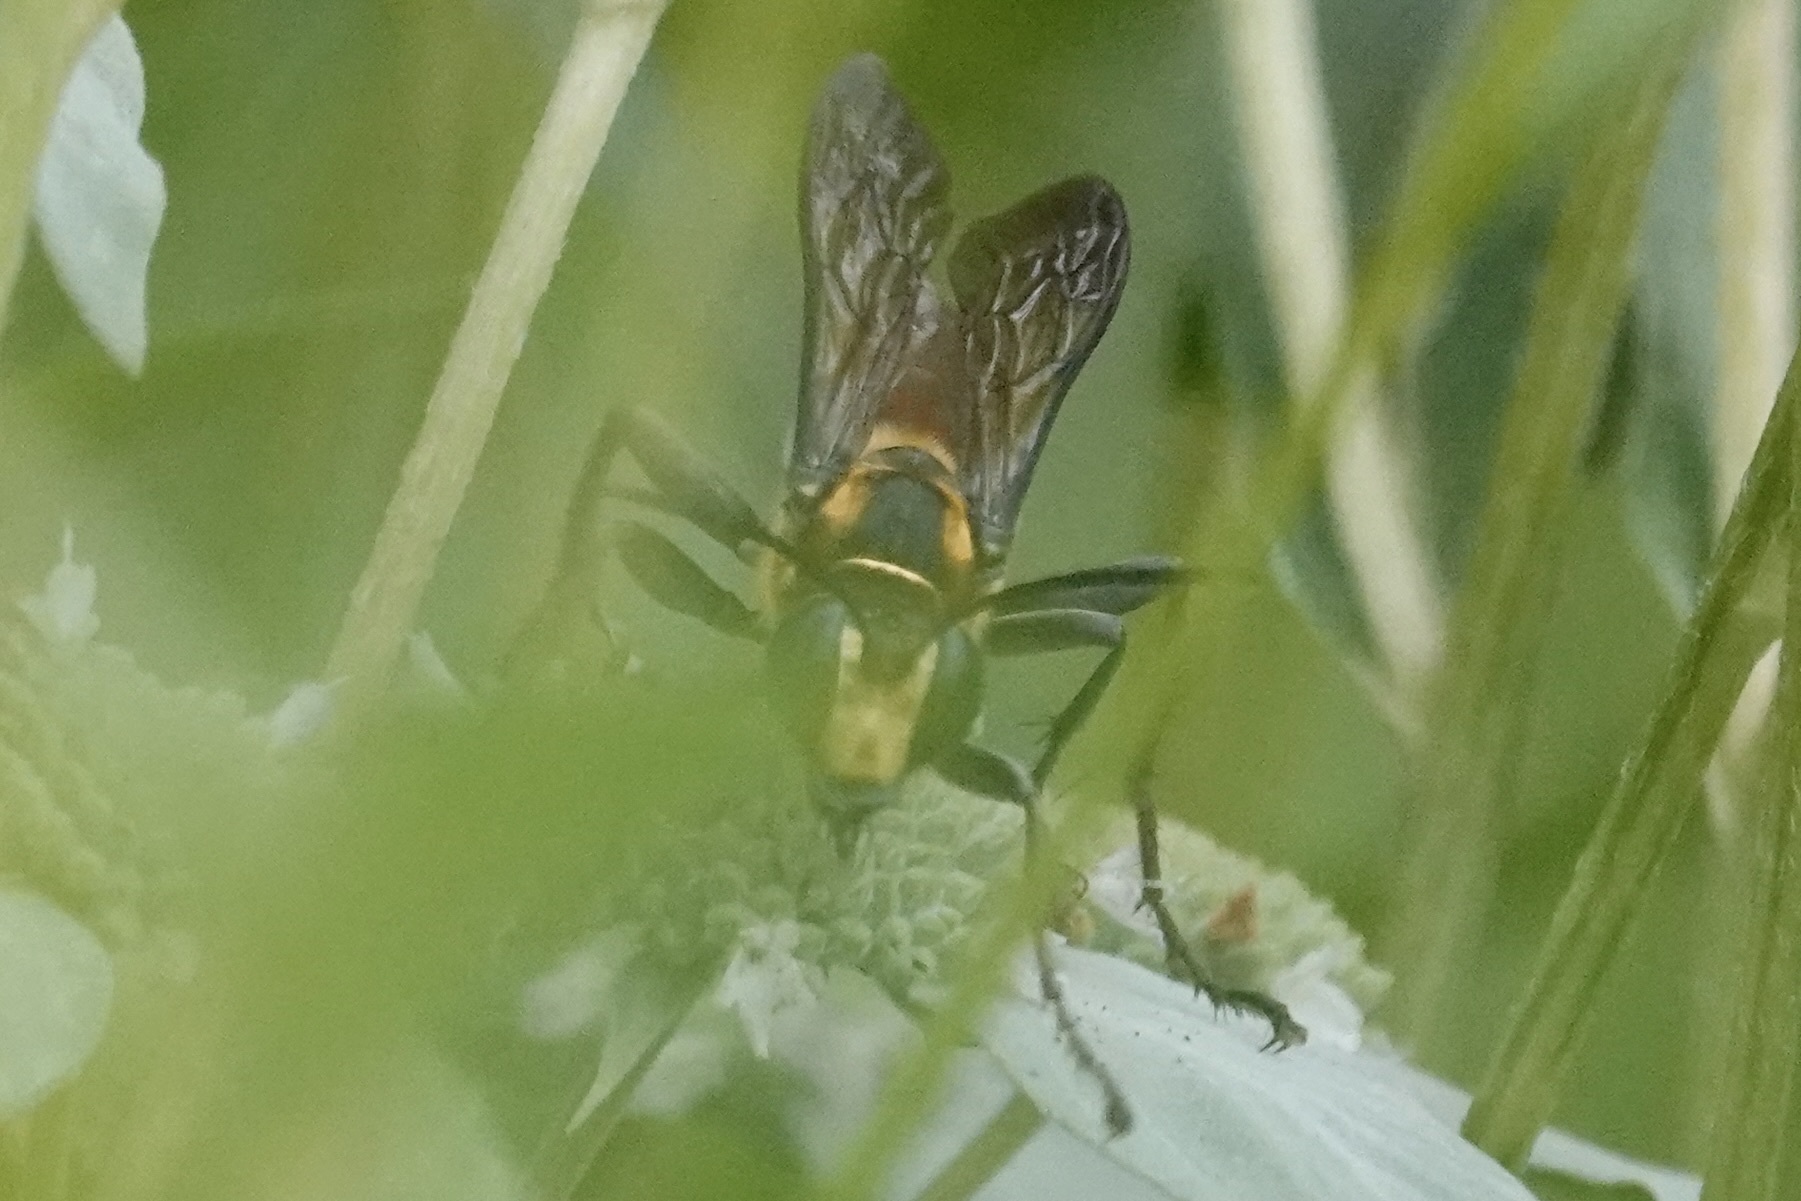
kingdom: Animalia
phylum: Arthropoda
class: Insecta
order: Hymenoptera
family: Sphecidae
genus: Sphex
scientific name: Sphex habenus
